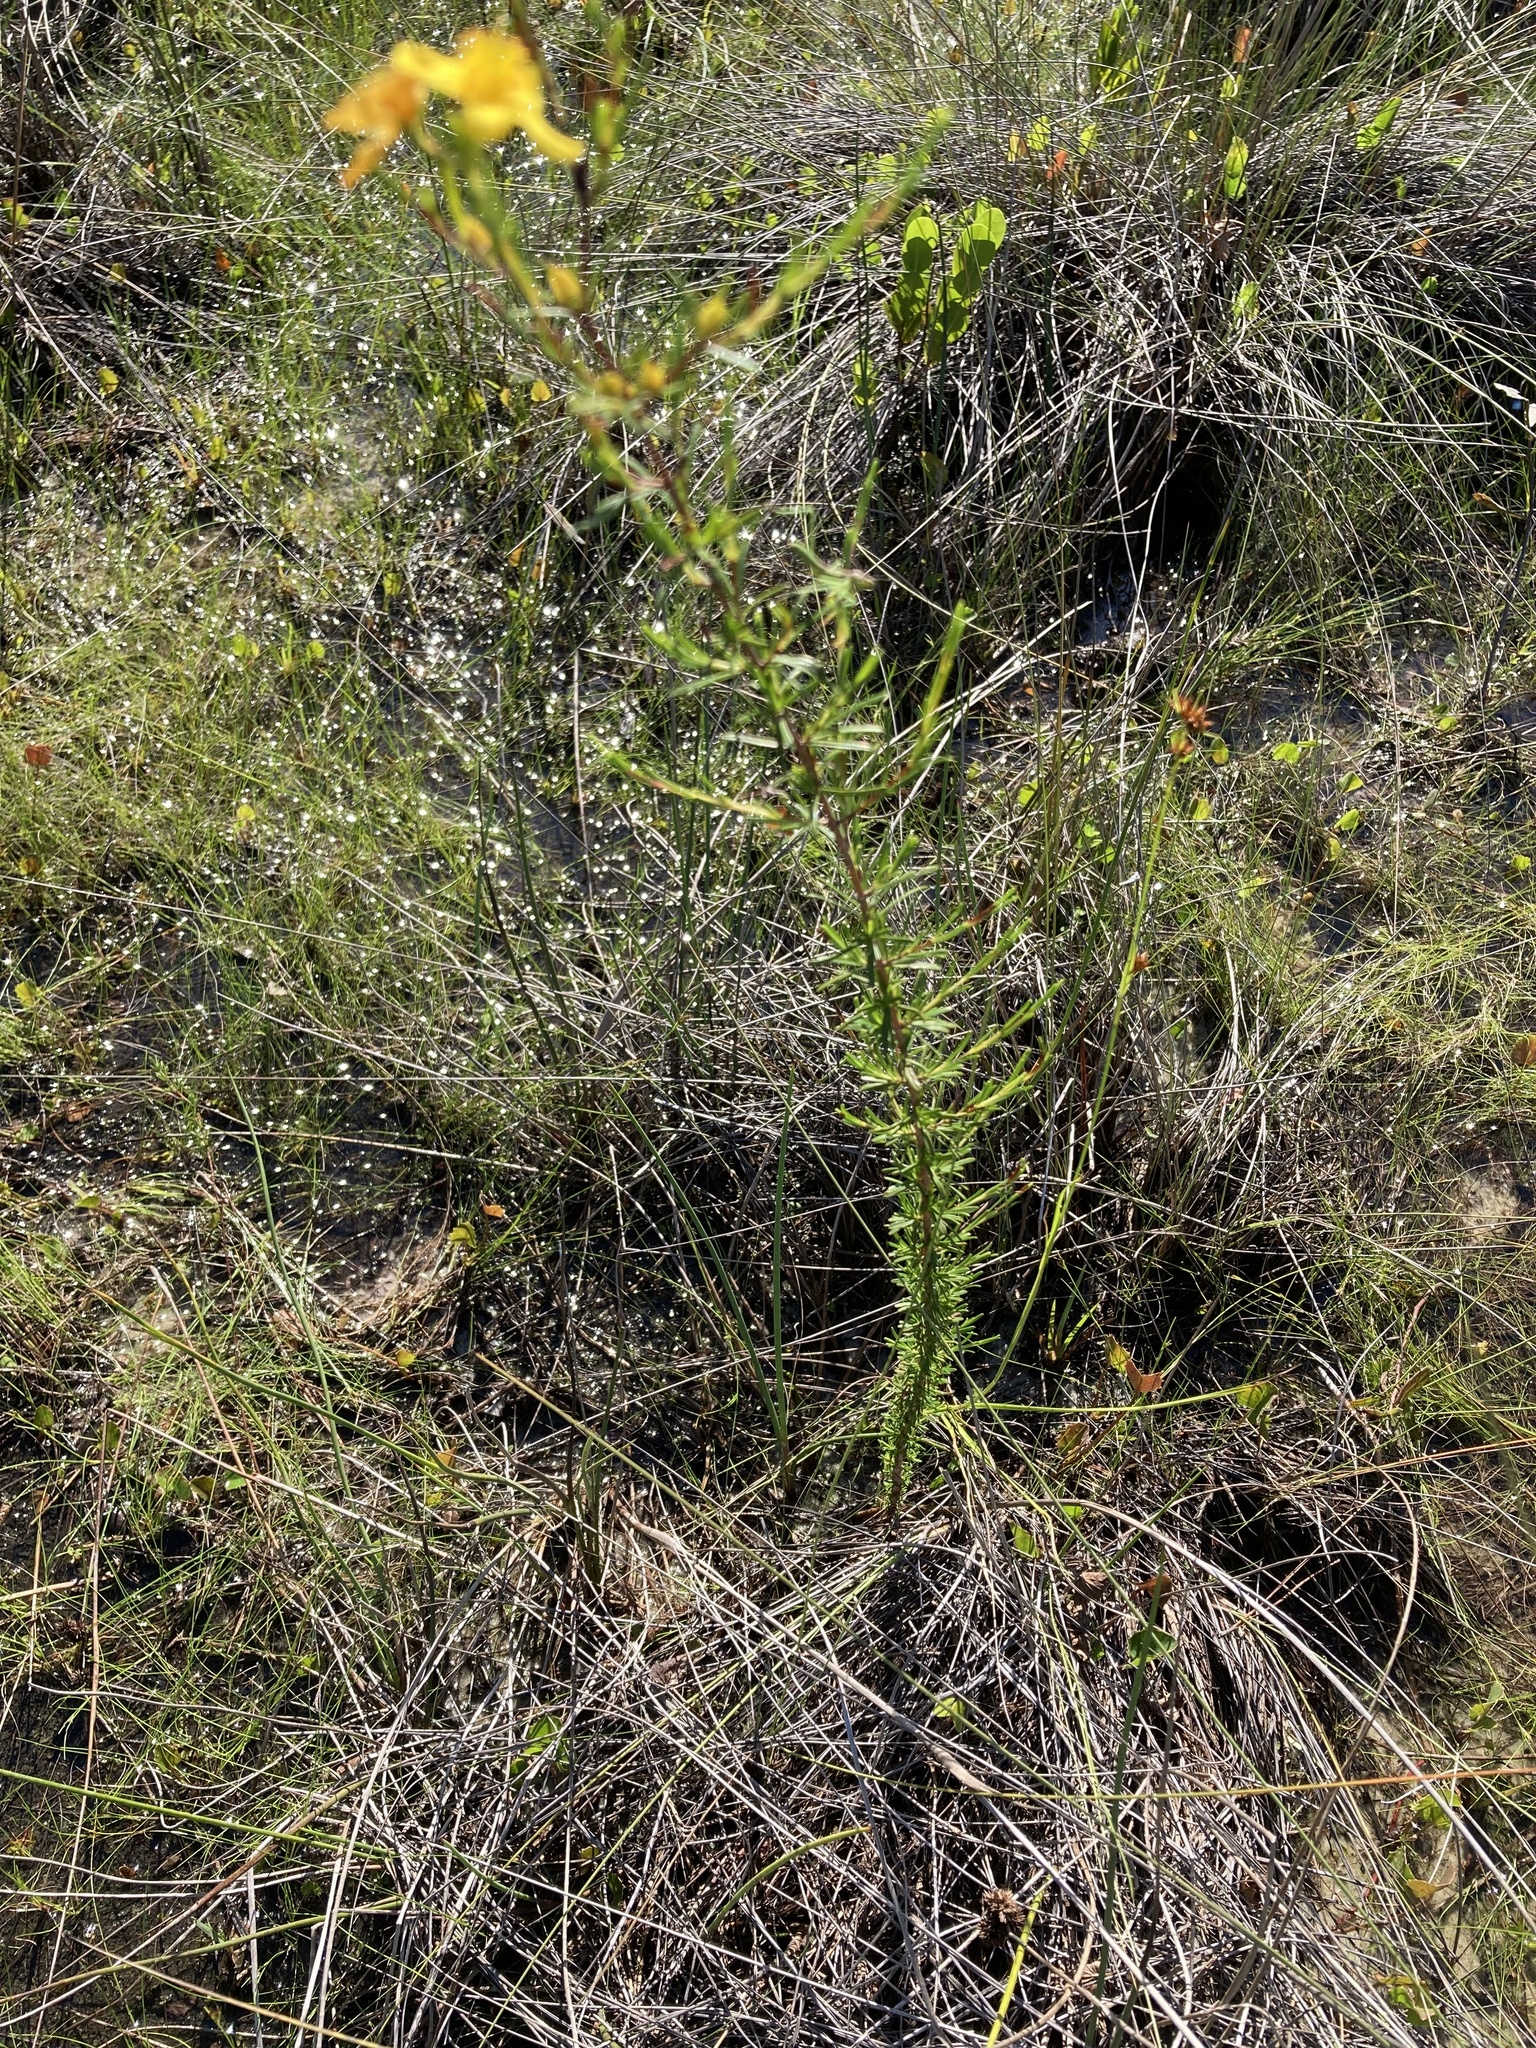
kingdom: Plantae
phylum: Tracheophyta
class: Magnoliopsida
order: Malpighiales
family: Hypericaceae
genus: Hypericum
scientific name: Hypericum fasciculatum
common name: Peelbark st. john's wort
